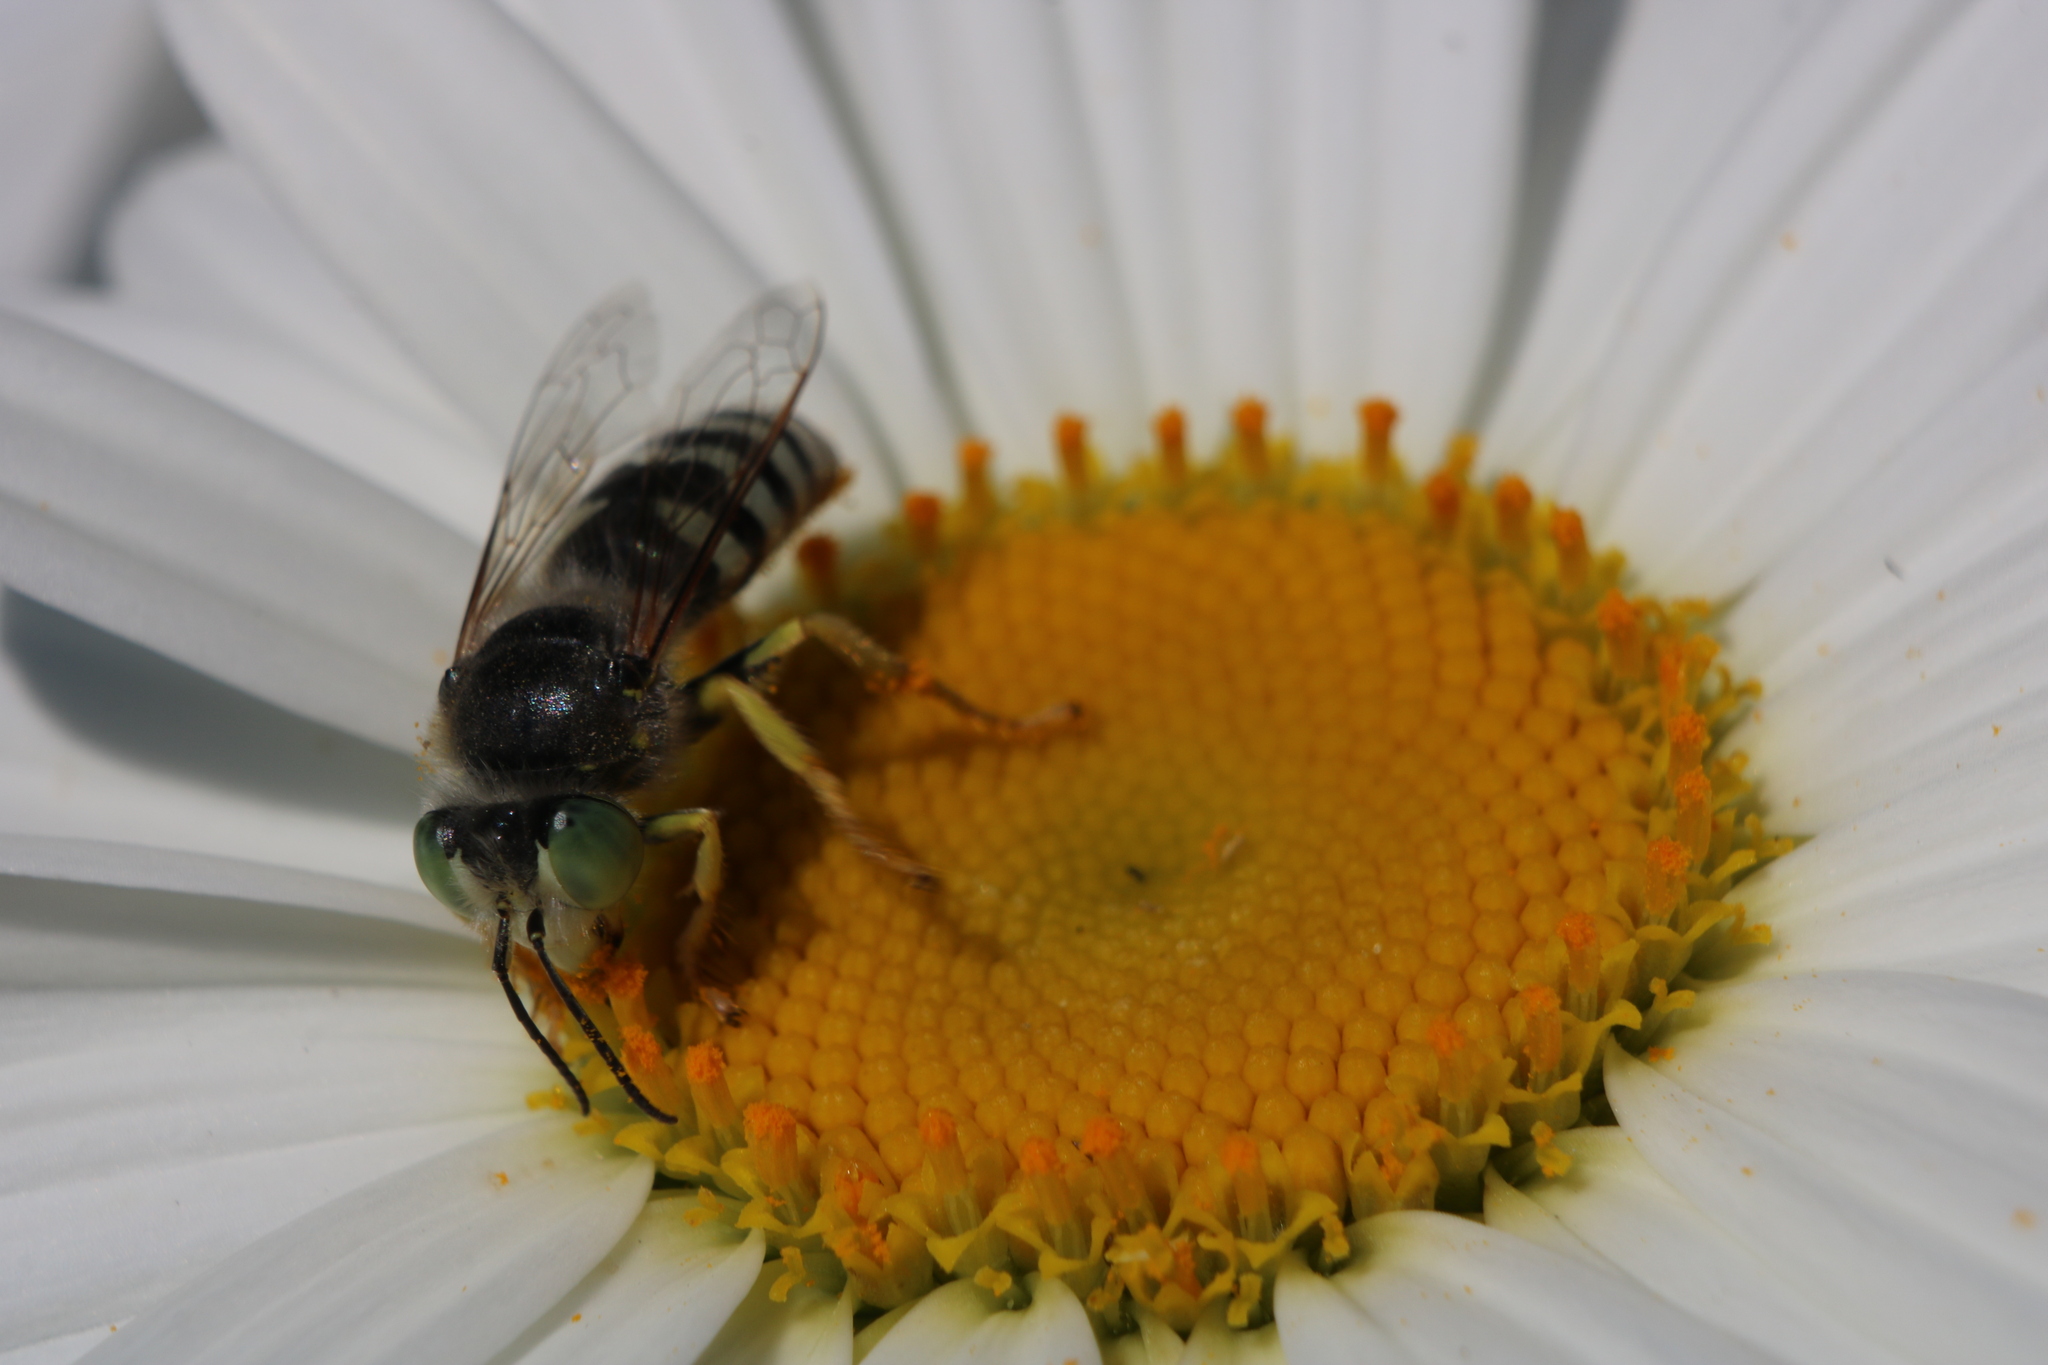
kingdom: Animalia
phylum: Arthropoda
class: Insecta
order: Hymenoptera
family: Crabronidae
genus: Bembix
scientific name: Bembix americana
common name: American sand wasp
